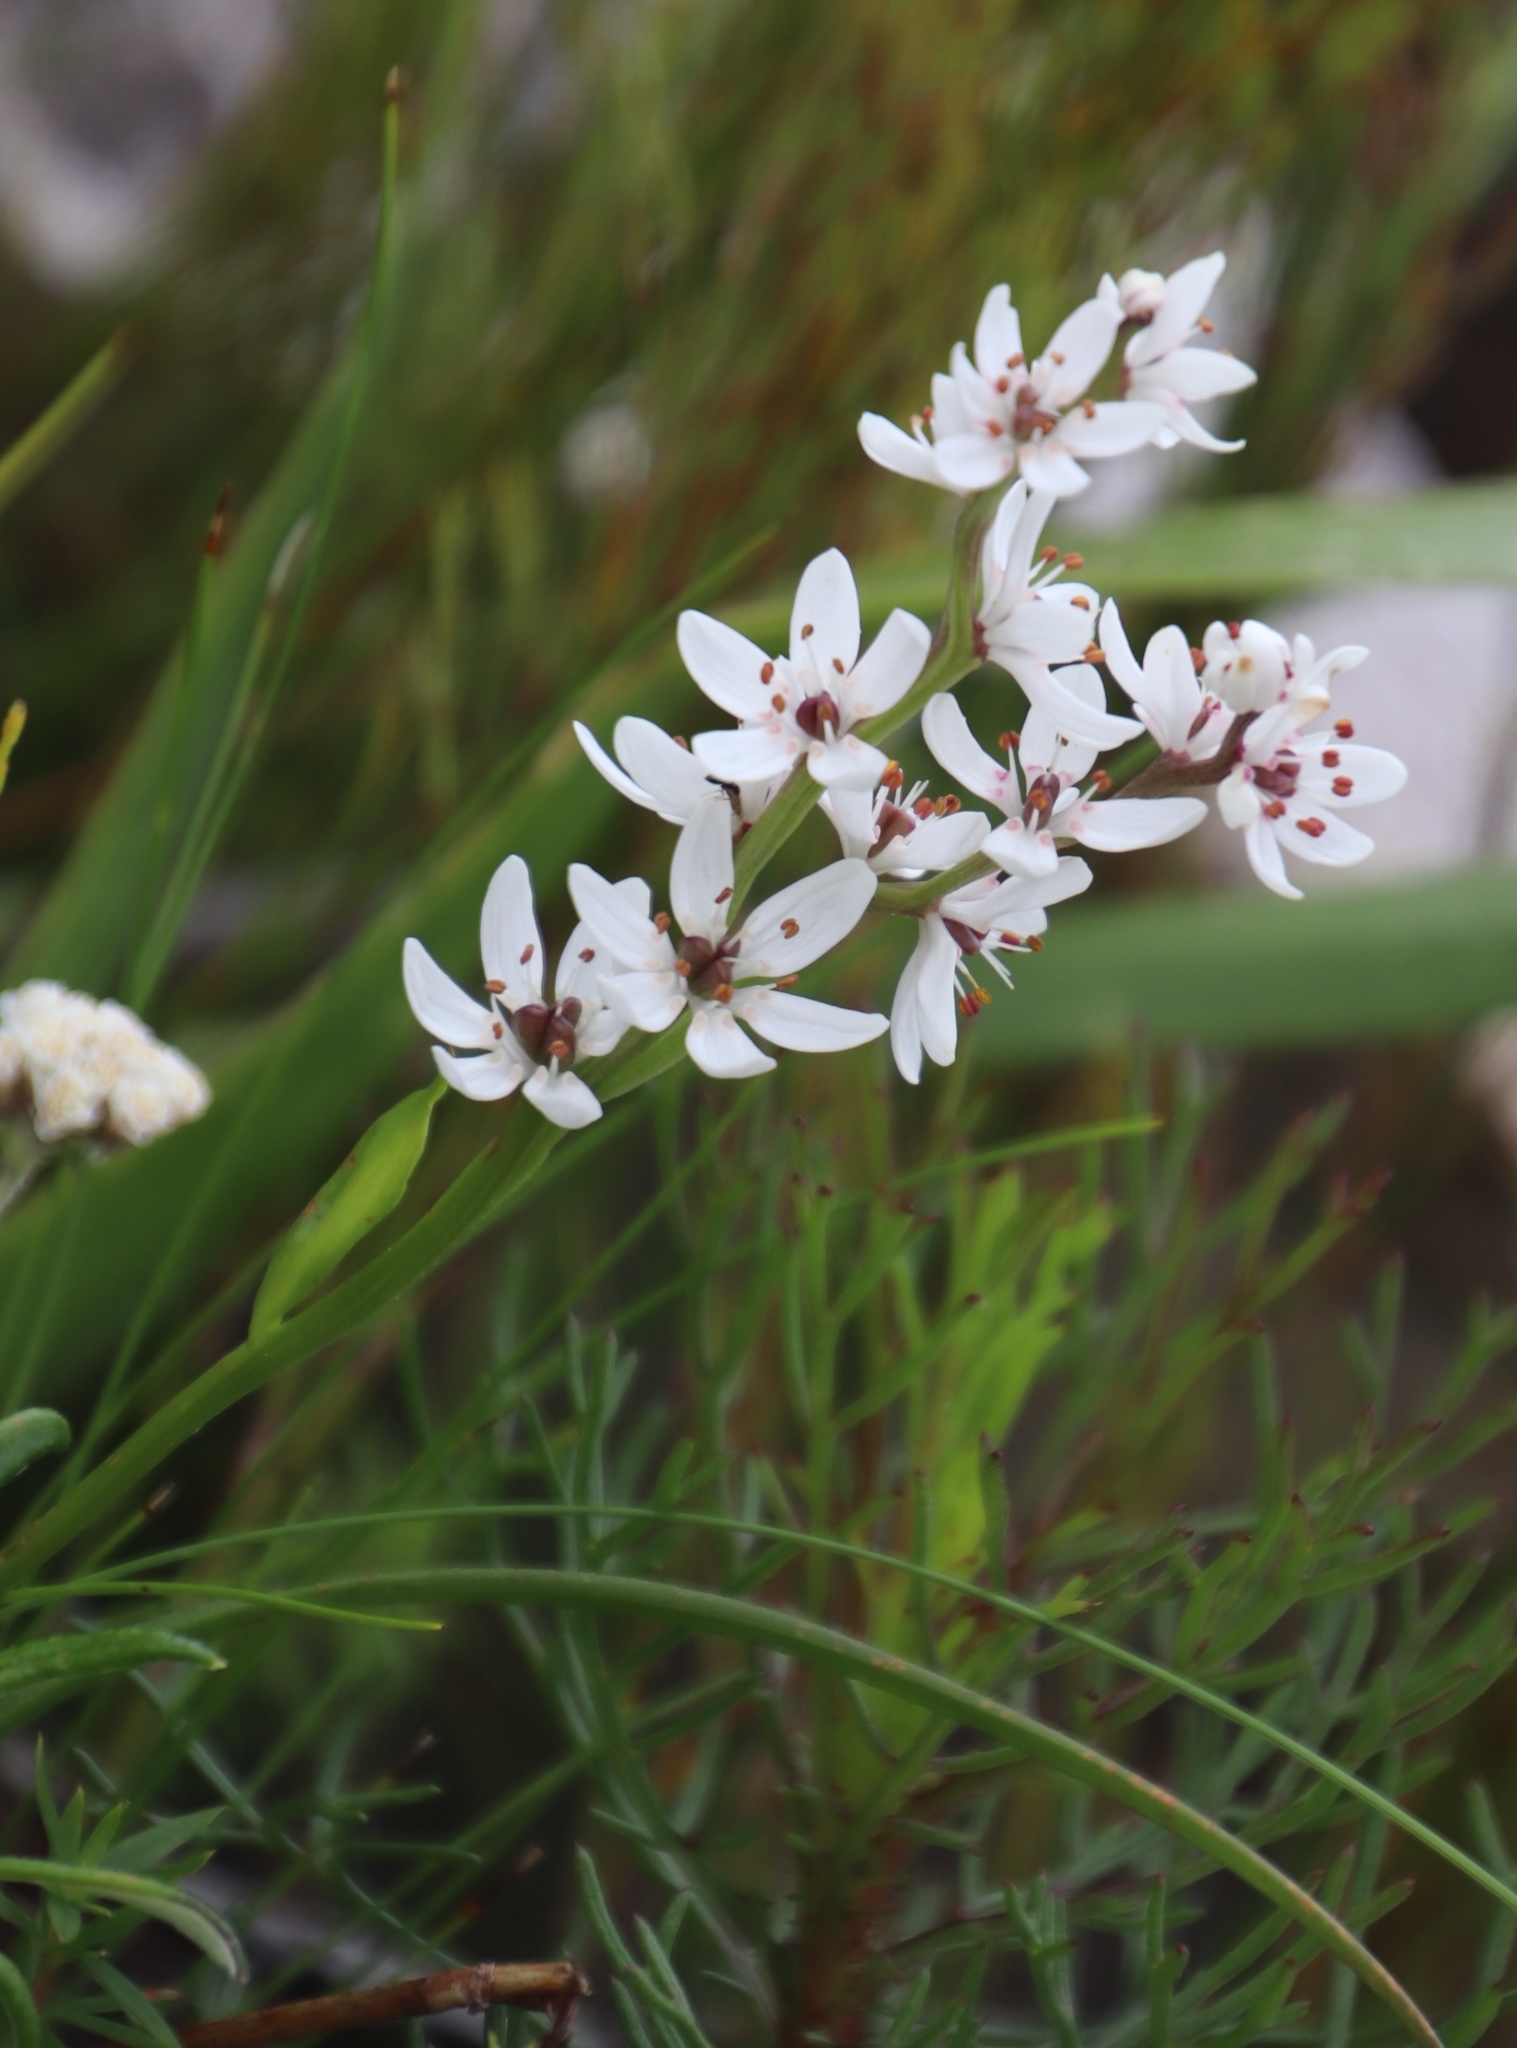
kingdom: Plantae
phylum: Tracheophyta
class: Liliopsida
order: Liliales
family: Colchicaceae
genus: Wurmbea
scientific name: Wurmbea punctata
